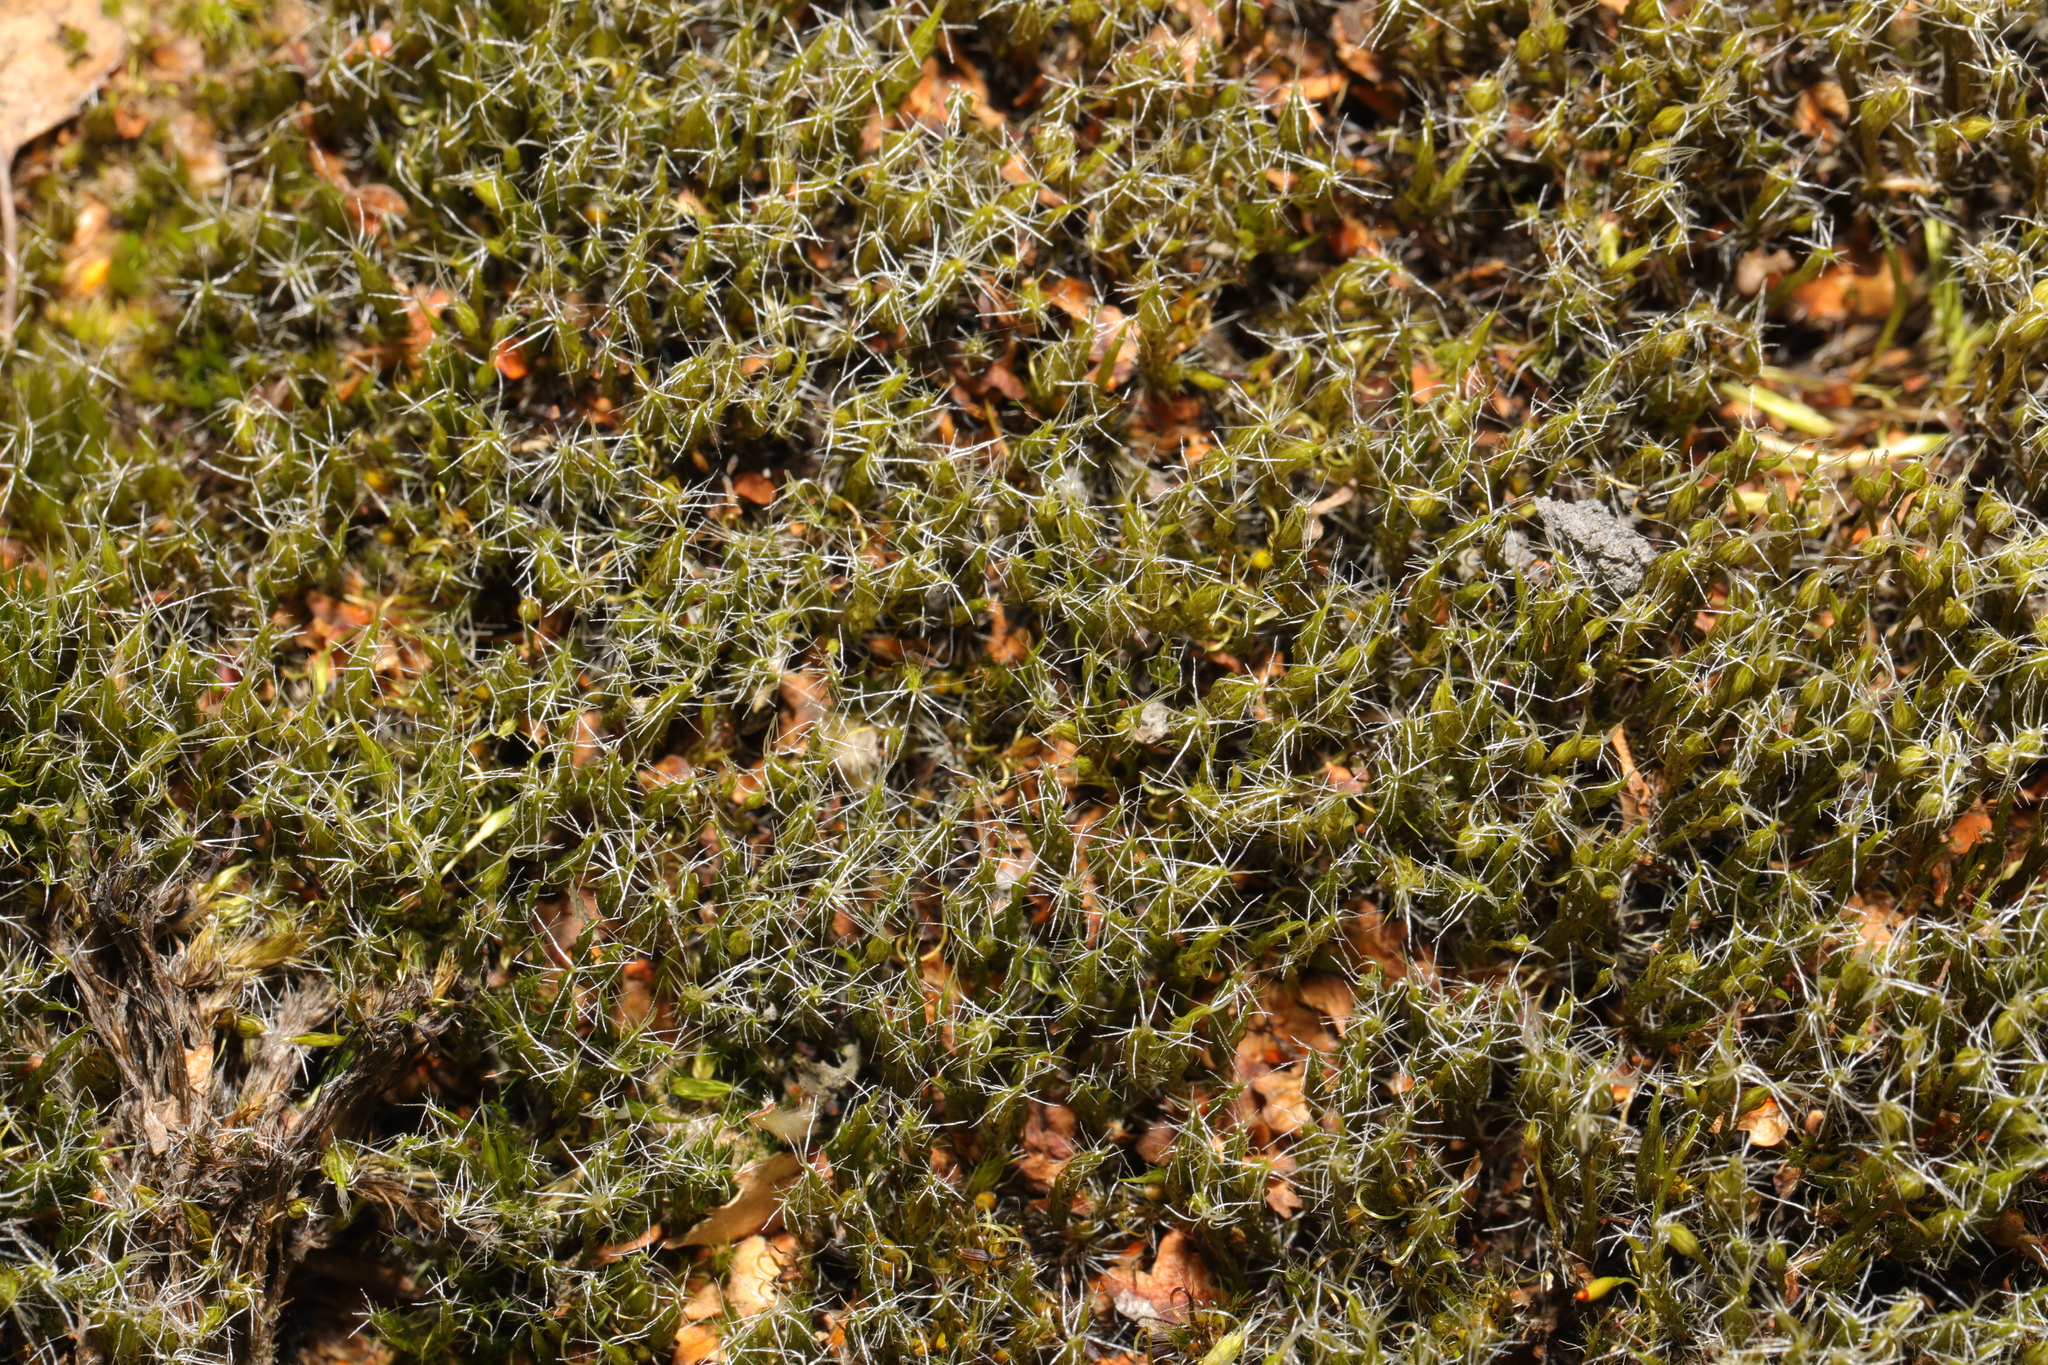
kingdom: Plantae
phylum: Bryophyta
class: Bryopsida
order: Dicranales
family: Leucobryaceae
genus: Campylopus
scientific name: Campylopus introflexus
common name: Heath star moss
